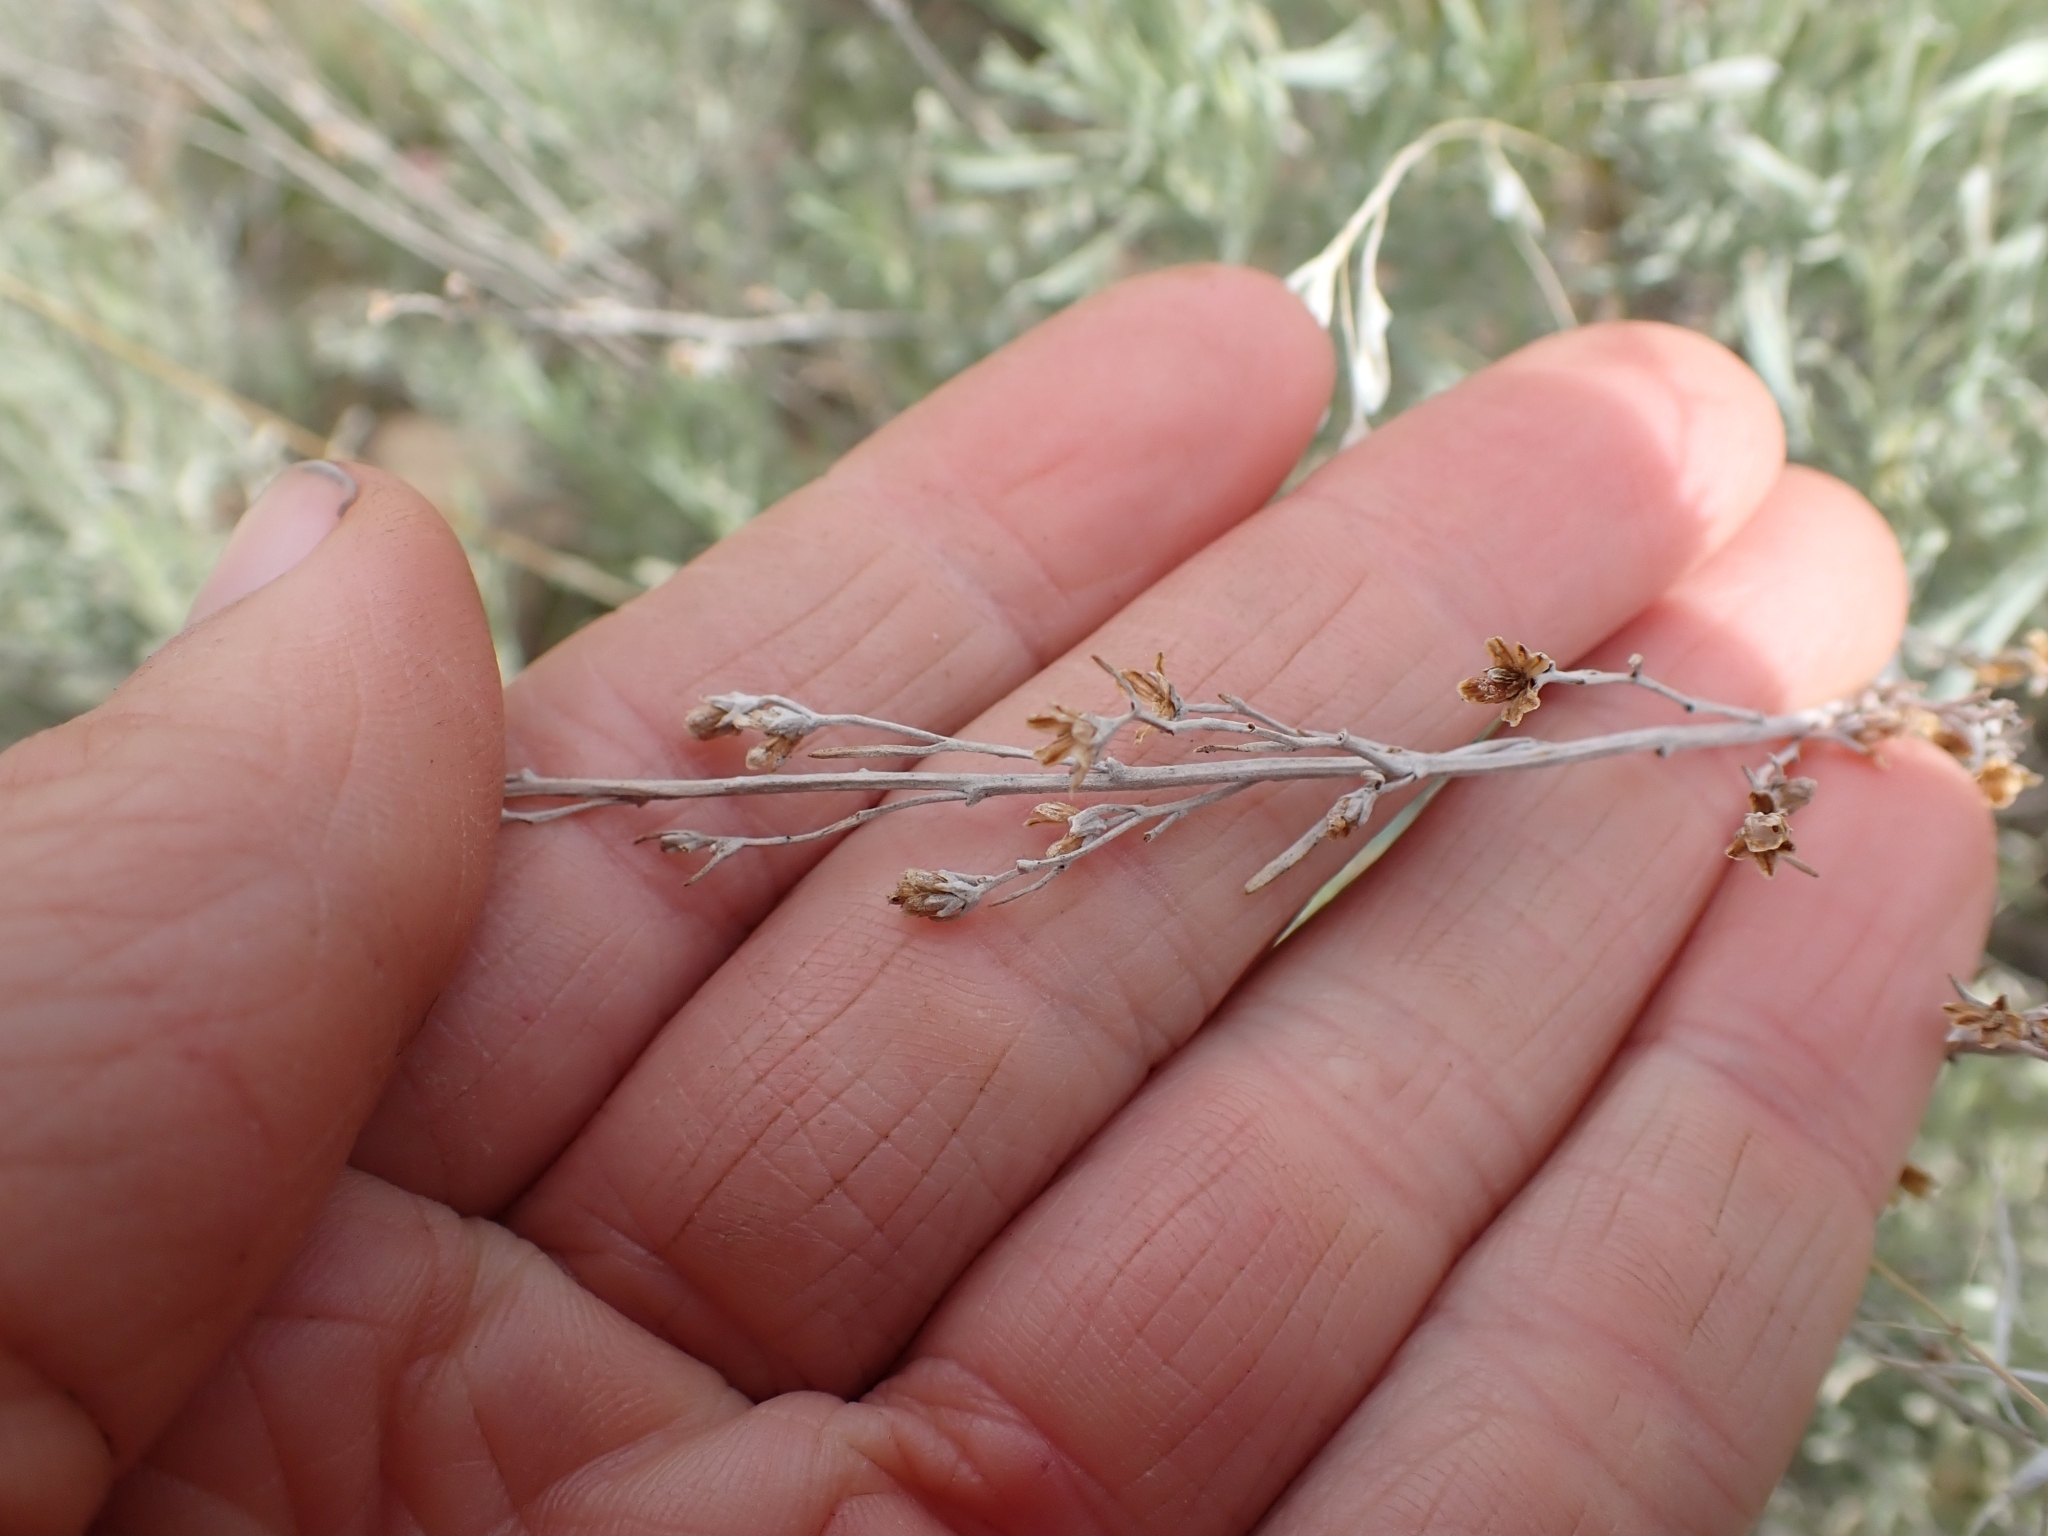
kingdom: Plantae
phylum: Tracheophyta
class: Magnoliopsida
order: Asterales
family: Asteraceae
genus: Artemisia
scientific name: Artemisia tridentata
